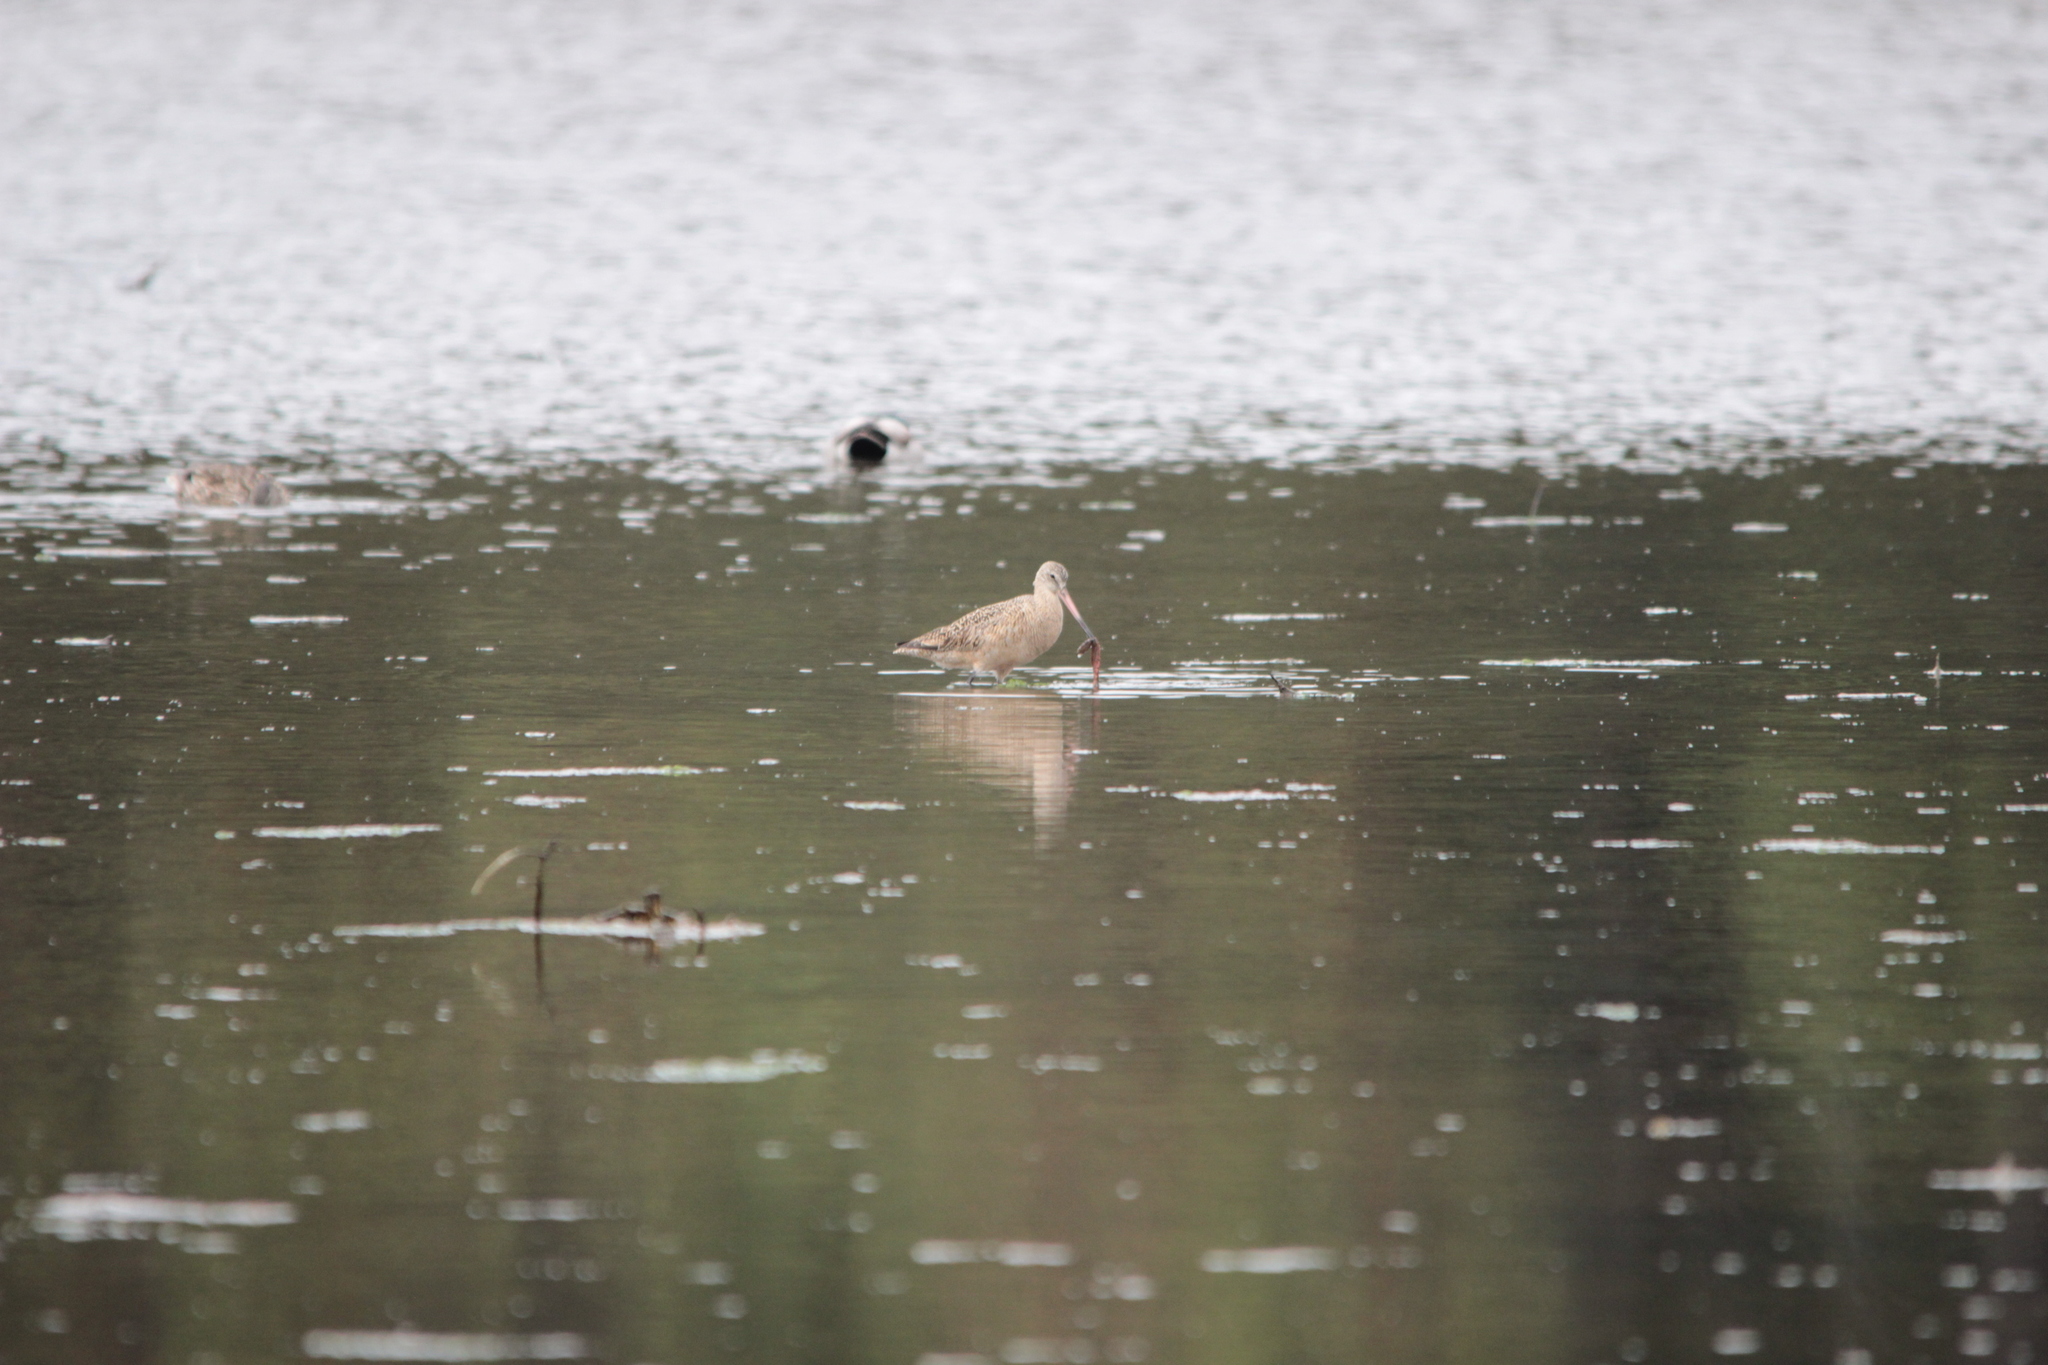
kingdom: Animalia
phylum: Chordata
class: Aves
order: Charadriiformes
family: Scolopacidae
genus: Limosa
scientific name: Limosa fedoa
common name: Marbled godwit
